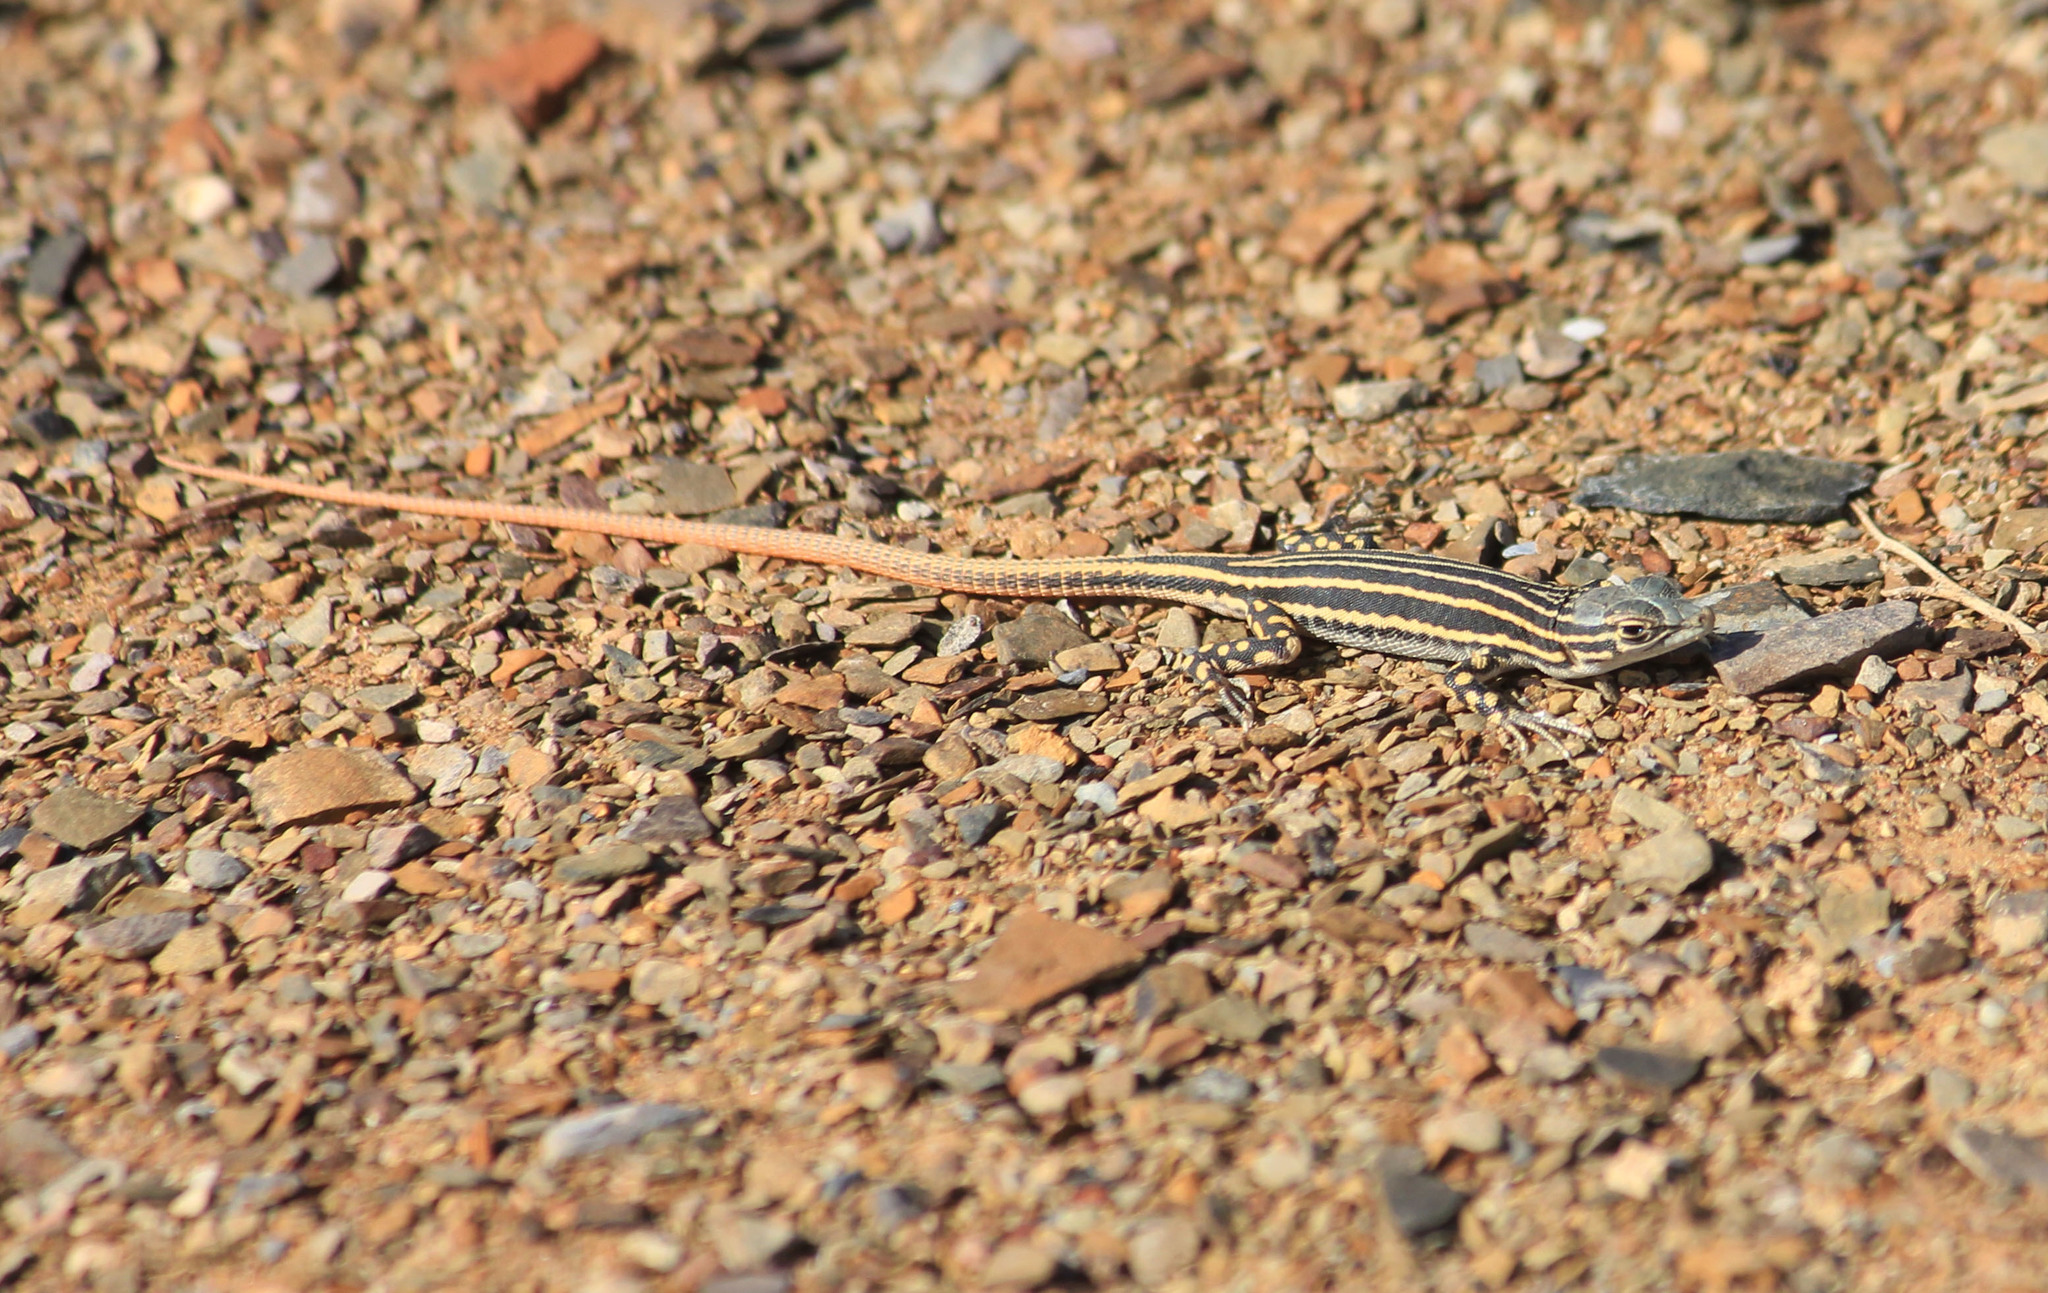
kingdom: Animalia
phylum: Chordata
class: Squamata
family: Lacertidae
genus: Pedioplanis
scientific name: Pedioplanis laticeps
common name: Karoo sand lizard
